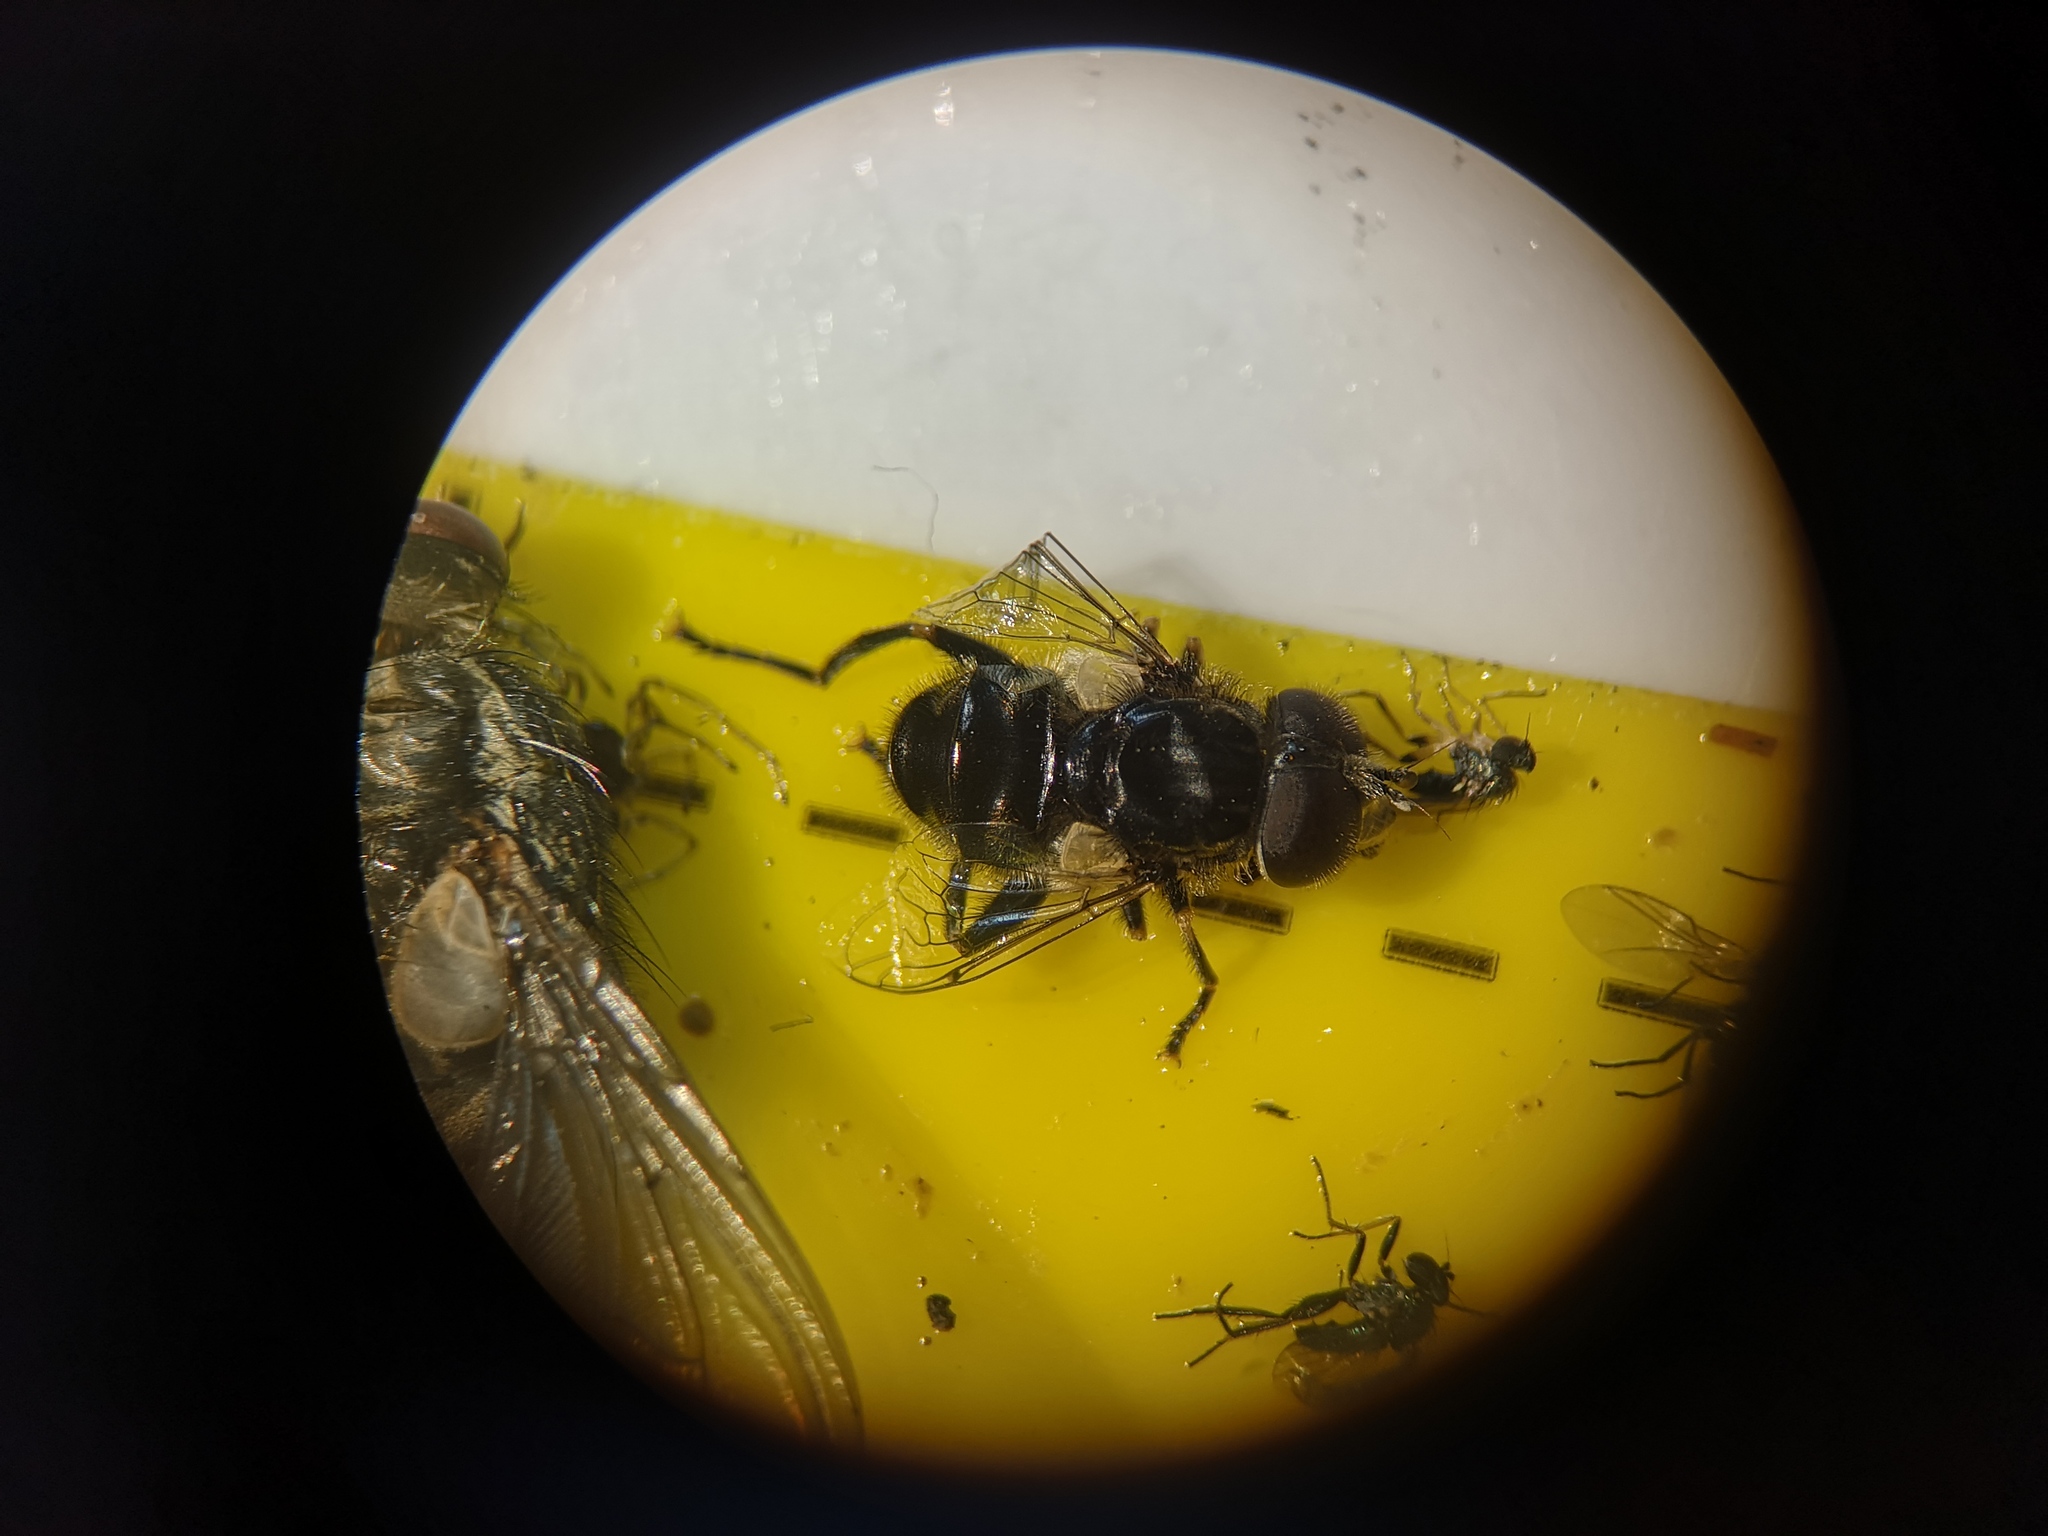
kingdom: Animalia
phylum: Arthropoda
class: Insecta
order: Diptera
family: Syrphidae
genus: Eristalinus
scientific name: Eristalinus sepulchralis
